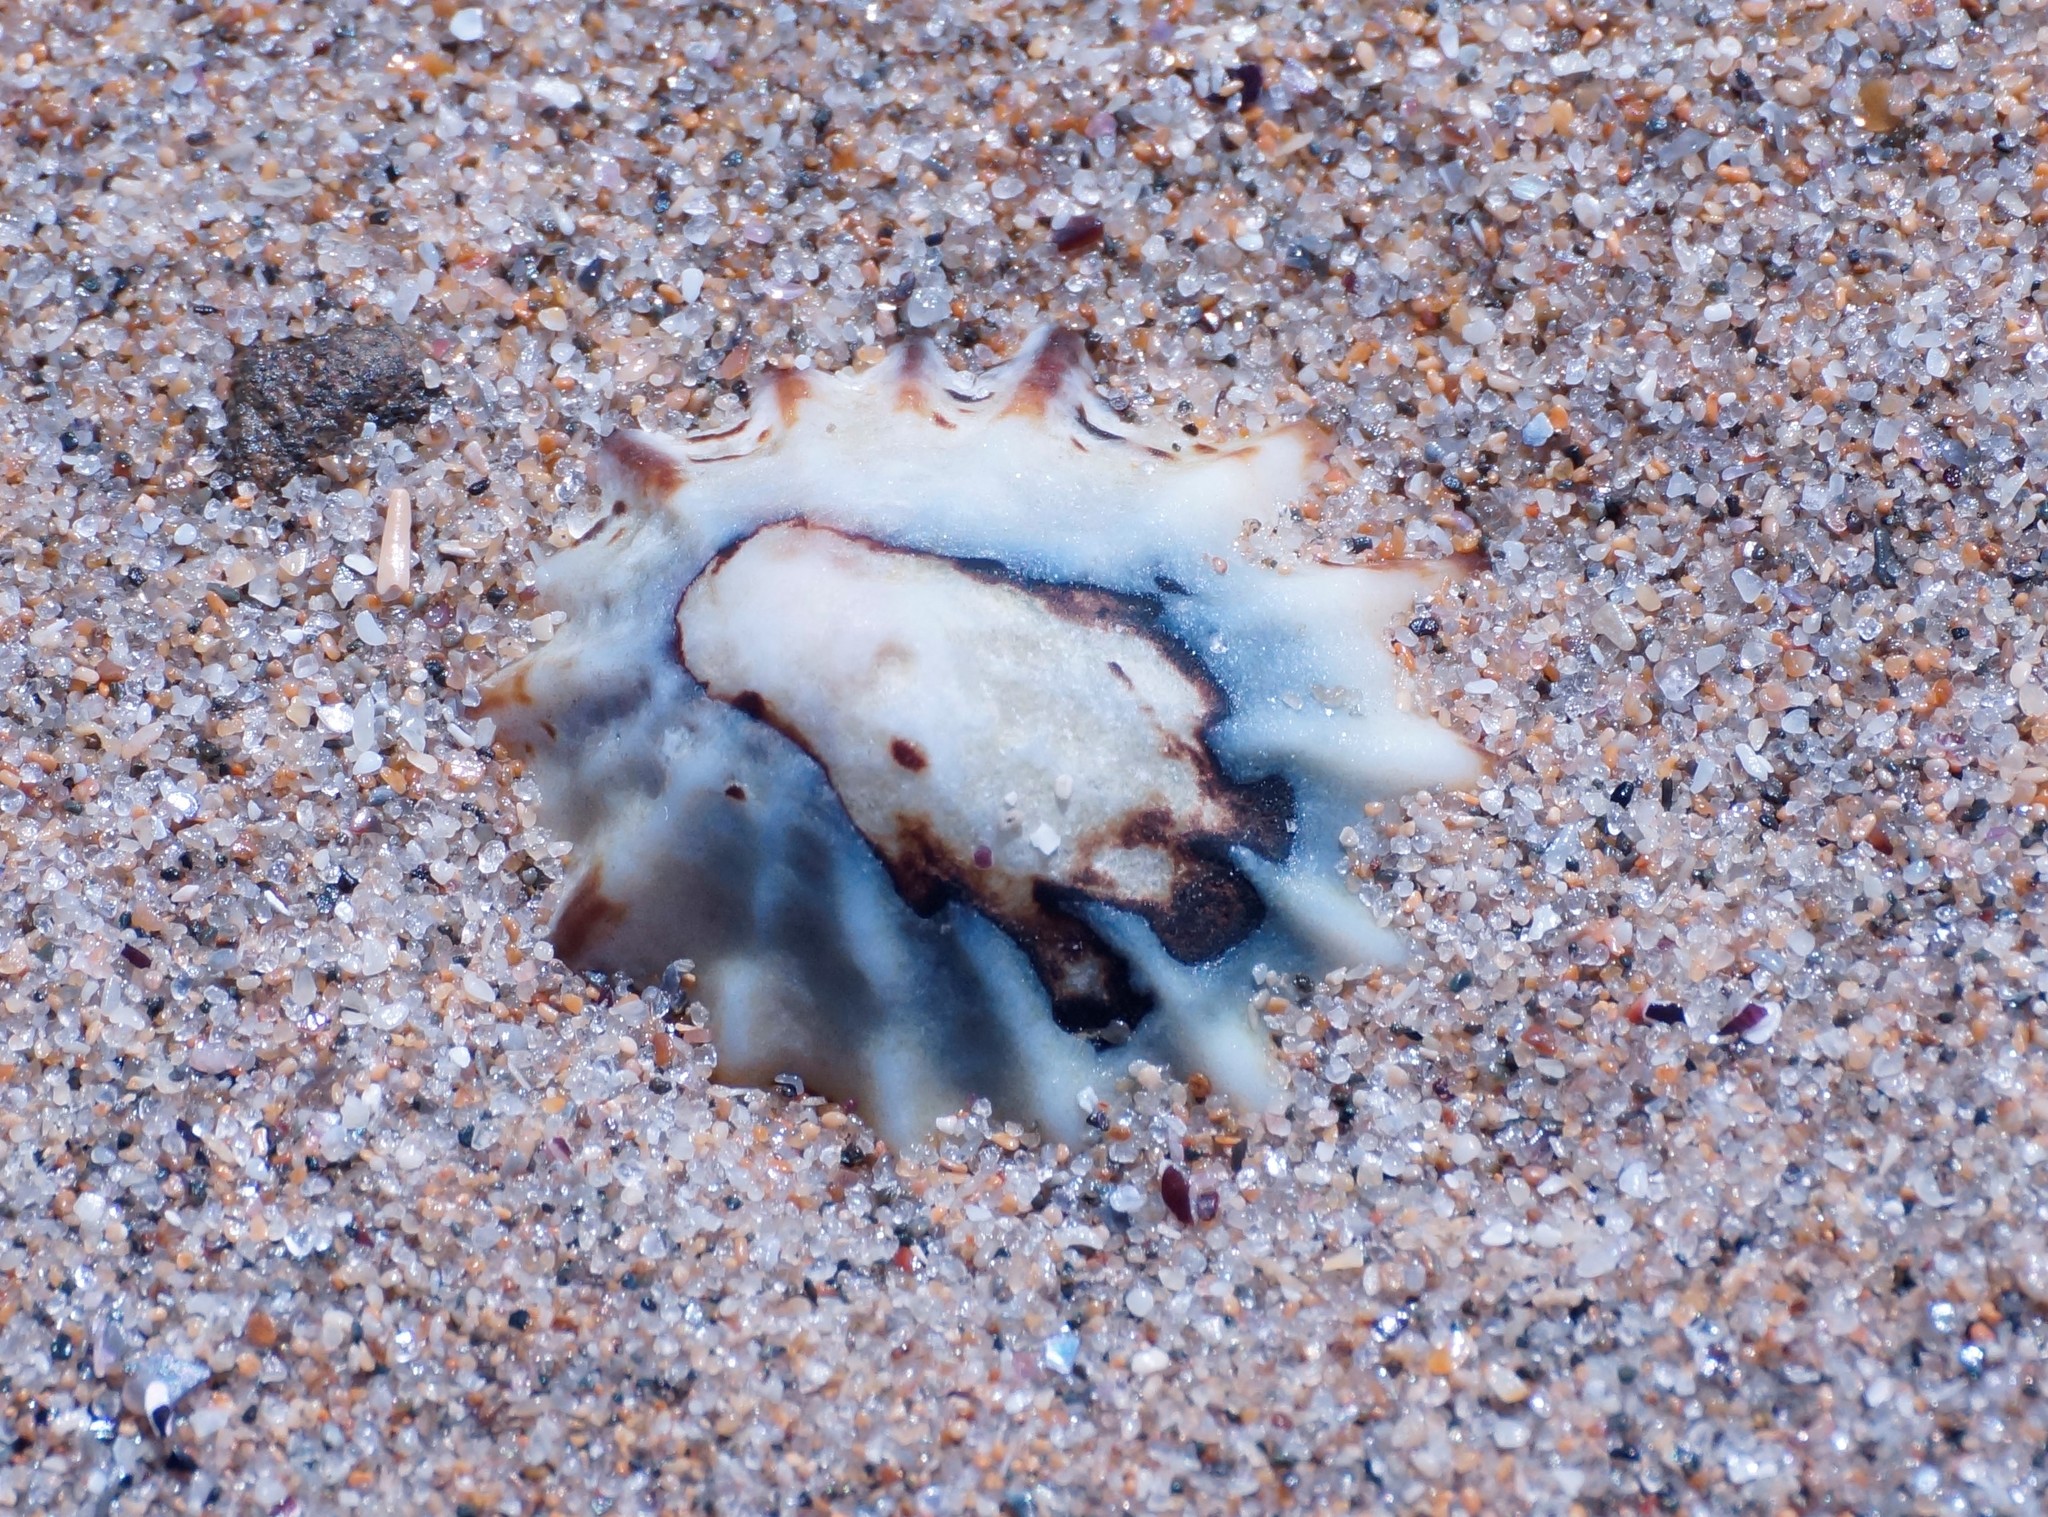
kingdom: Animalia
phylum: Mollusca
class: Gastropoda
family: Lottiidae
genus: Patelloida
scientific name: Patelloida alticostata
